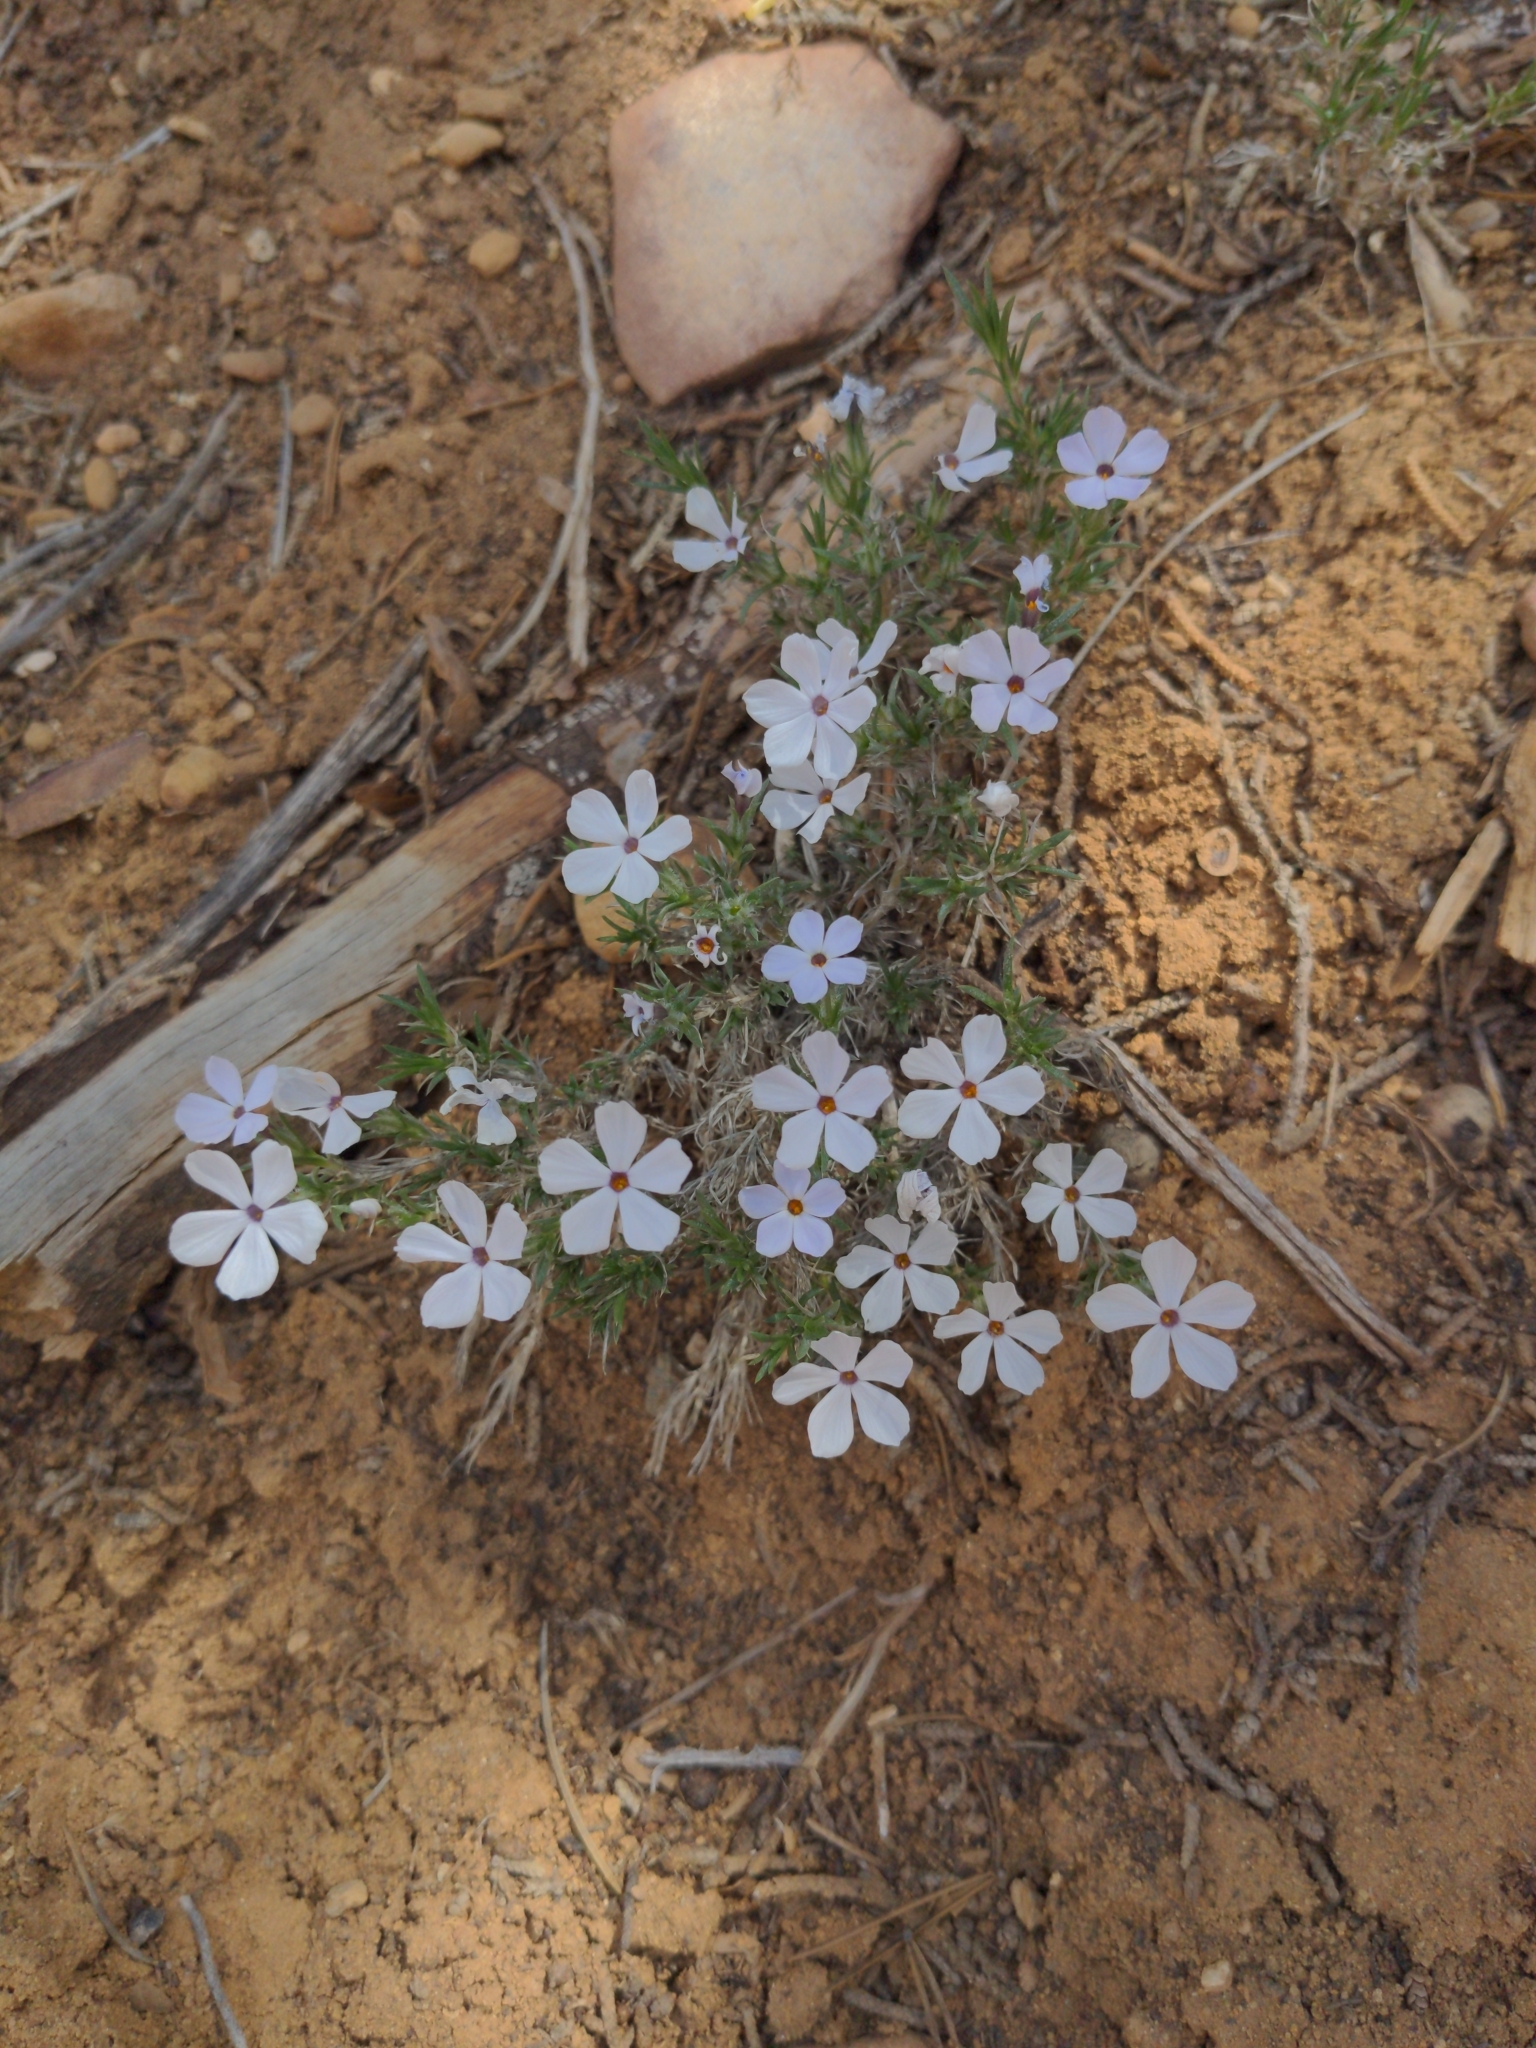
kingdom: Plantae
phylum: Tracheophyta
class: Magnoliopsida
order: Ericales
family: Polemoniaceae
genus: Phlox
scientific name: Phlox hoodii
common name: Moss phlox
